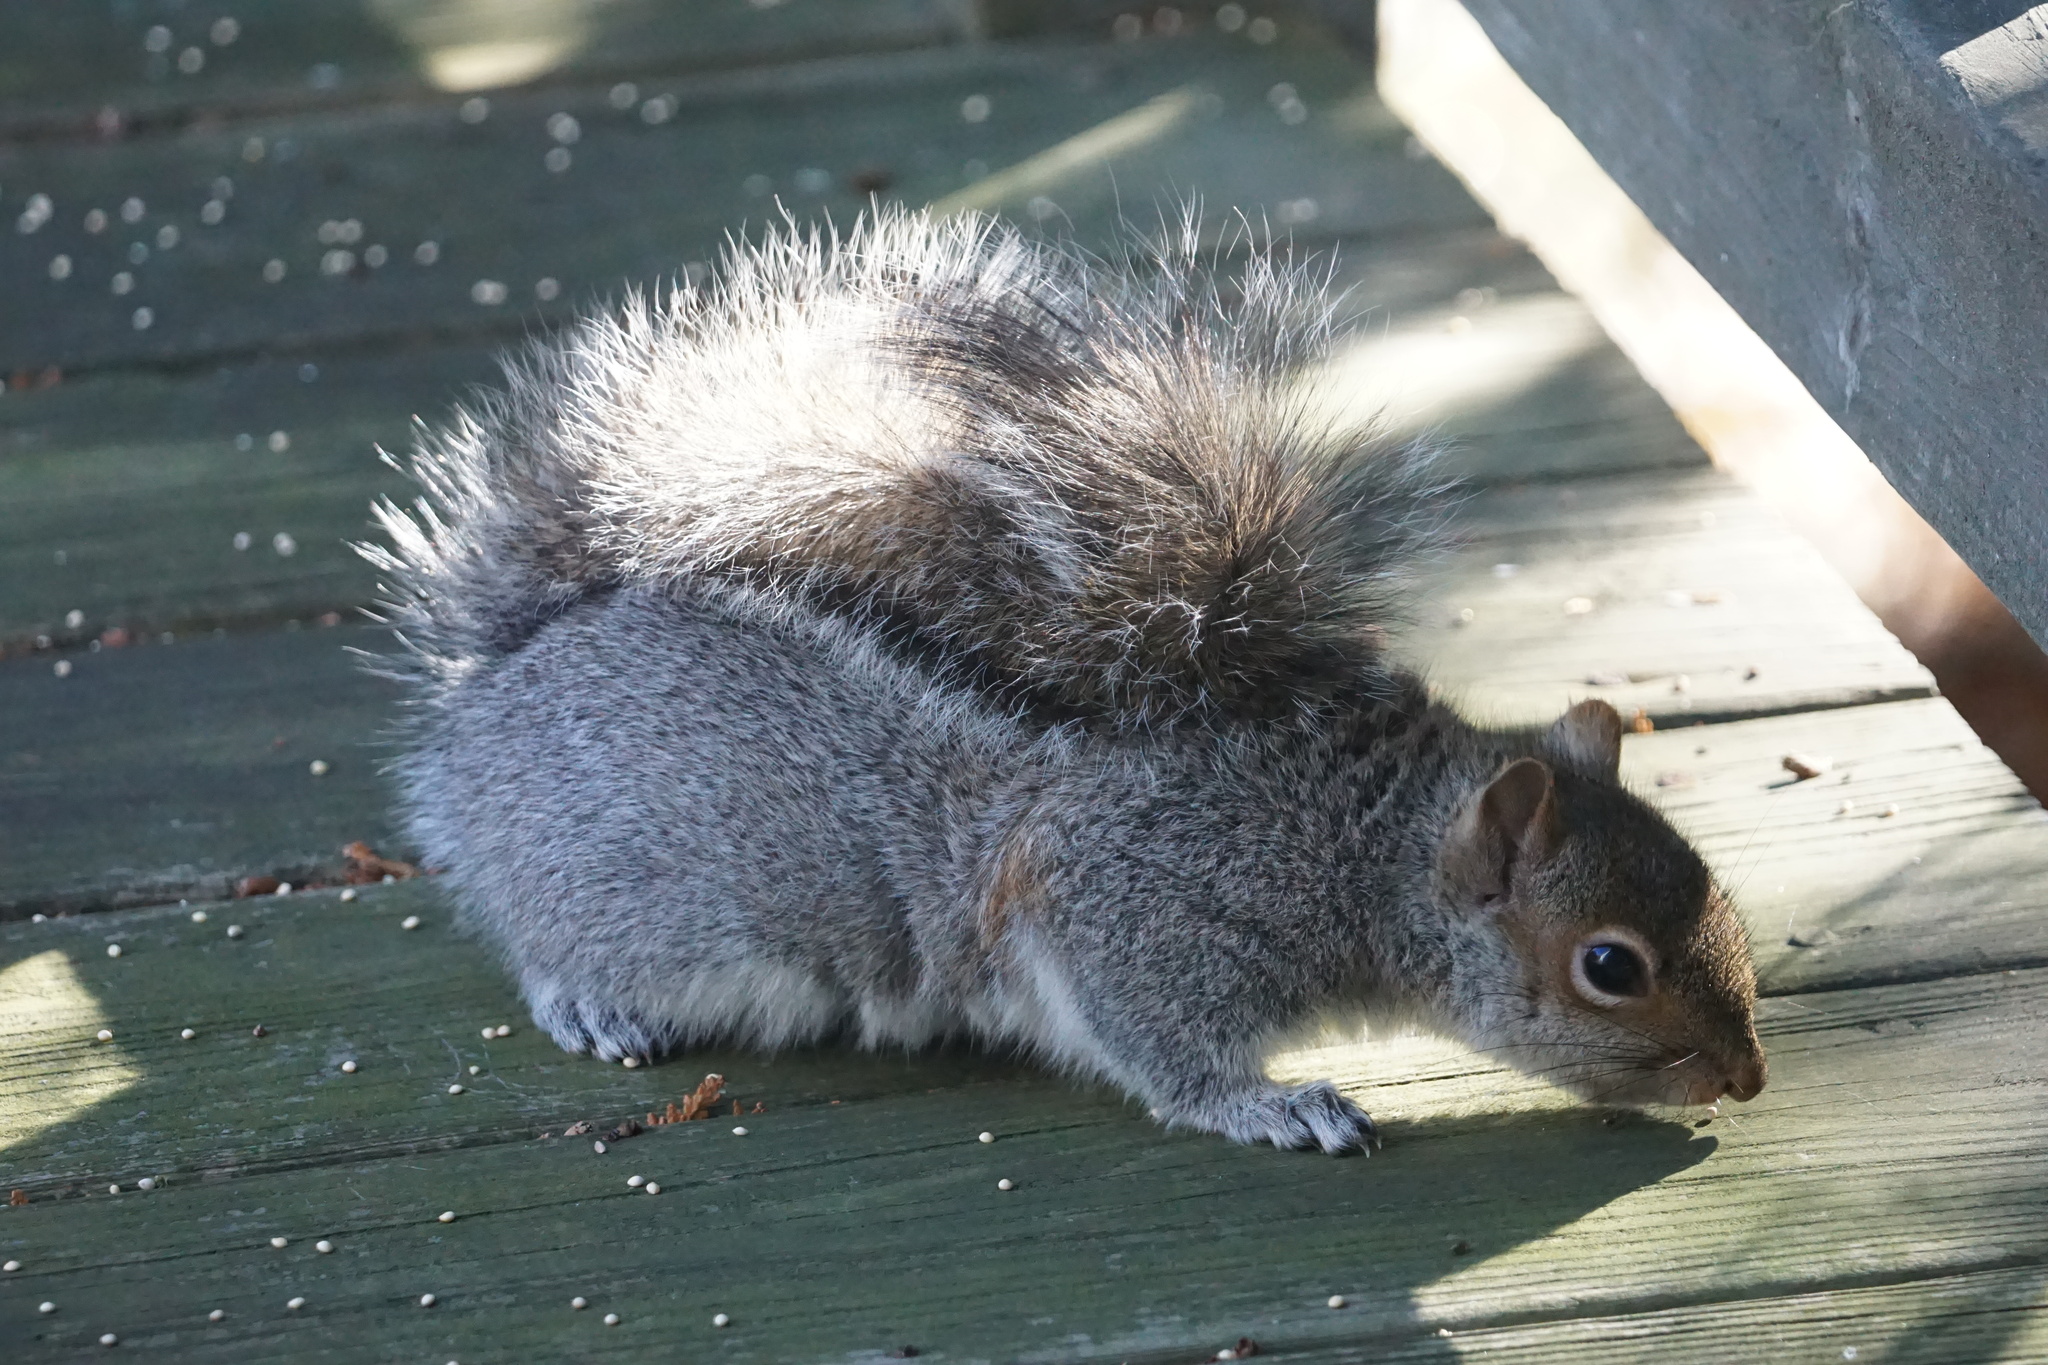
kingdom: Animalia
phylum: Chordata
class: Mammalia
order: Rodentia
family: Sciuridae
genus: Sciurus
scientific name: Sciurus carolinensis
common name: Eastern gray squirrel
